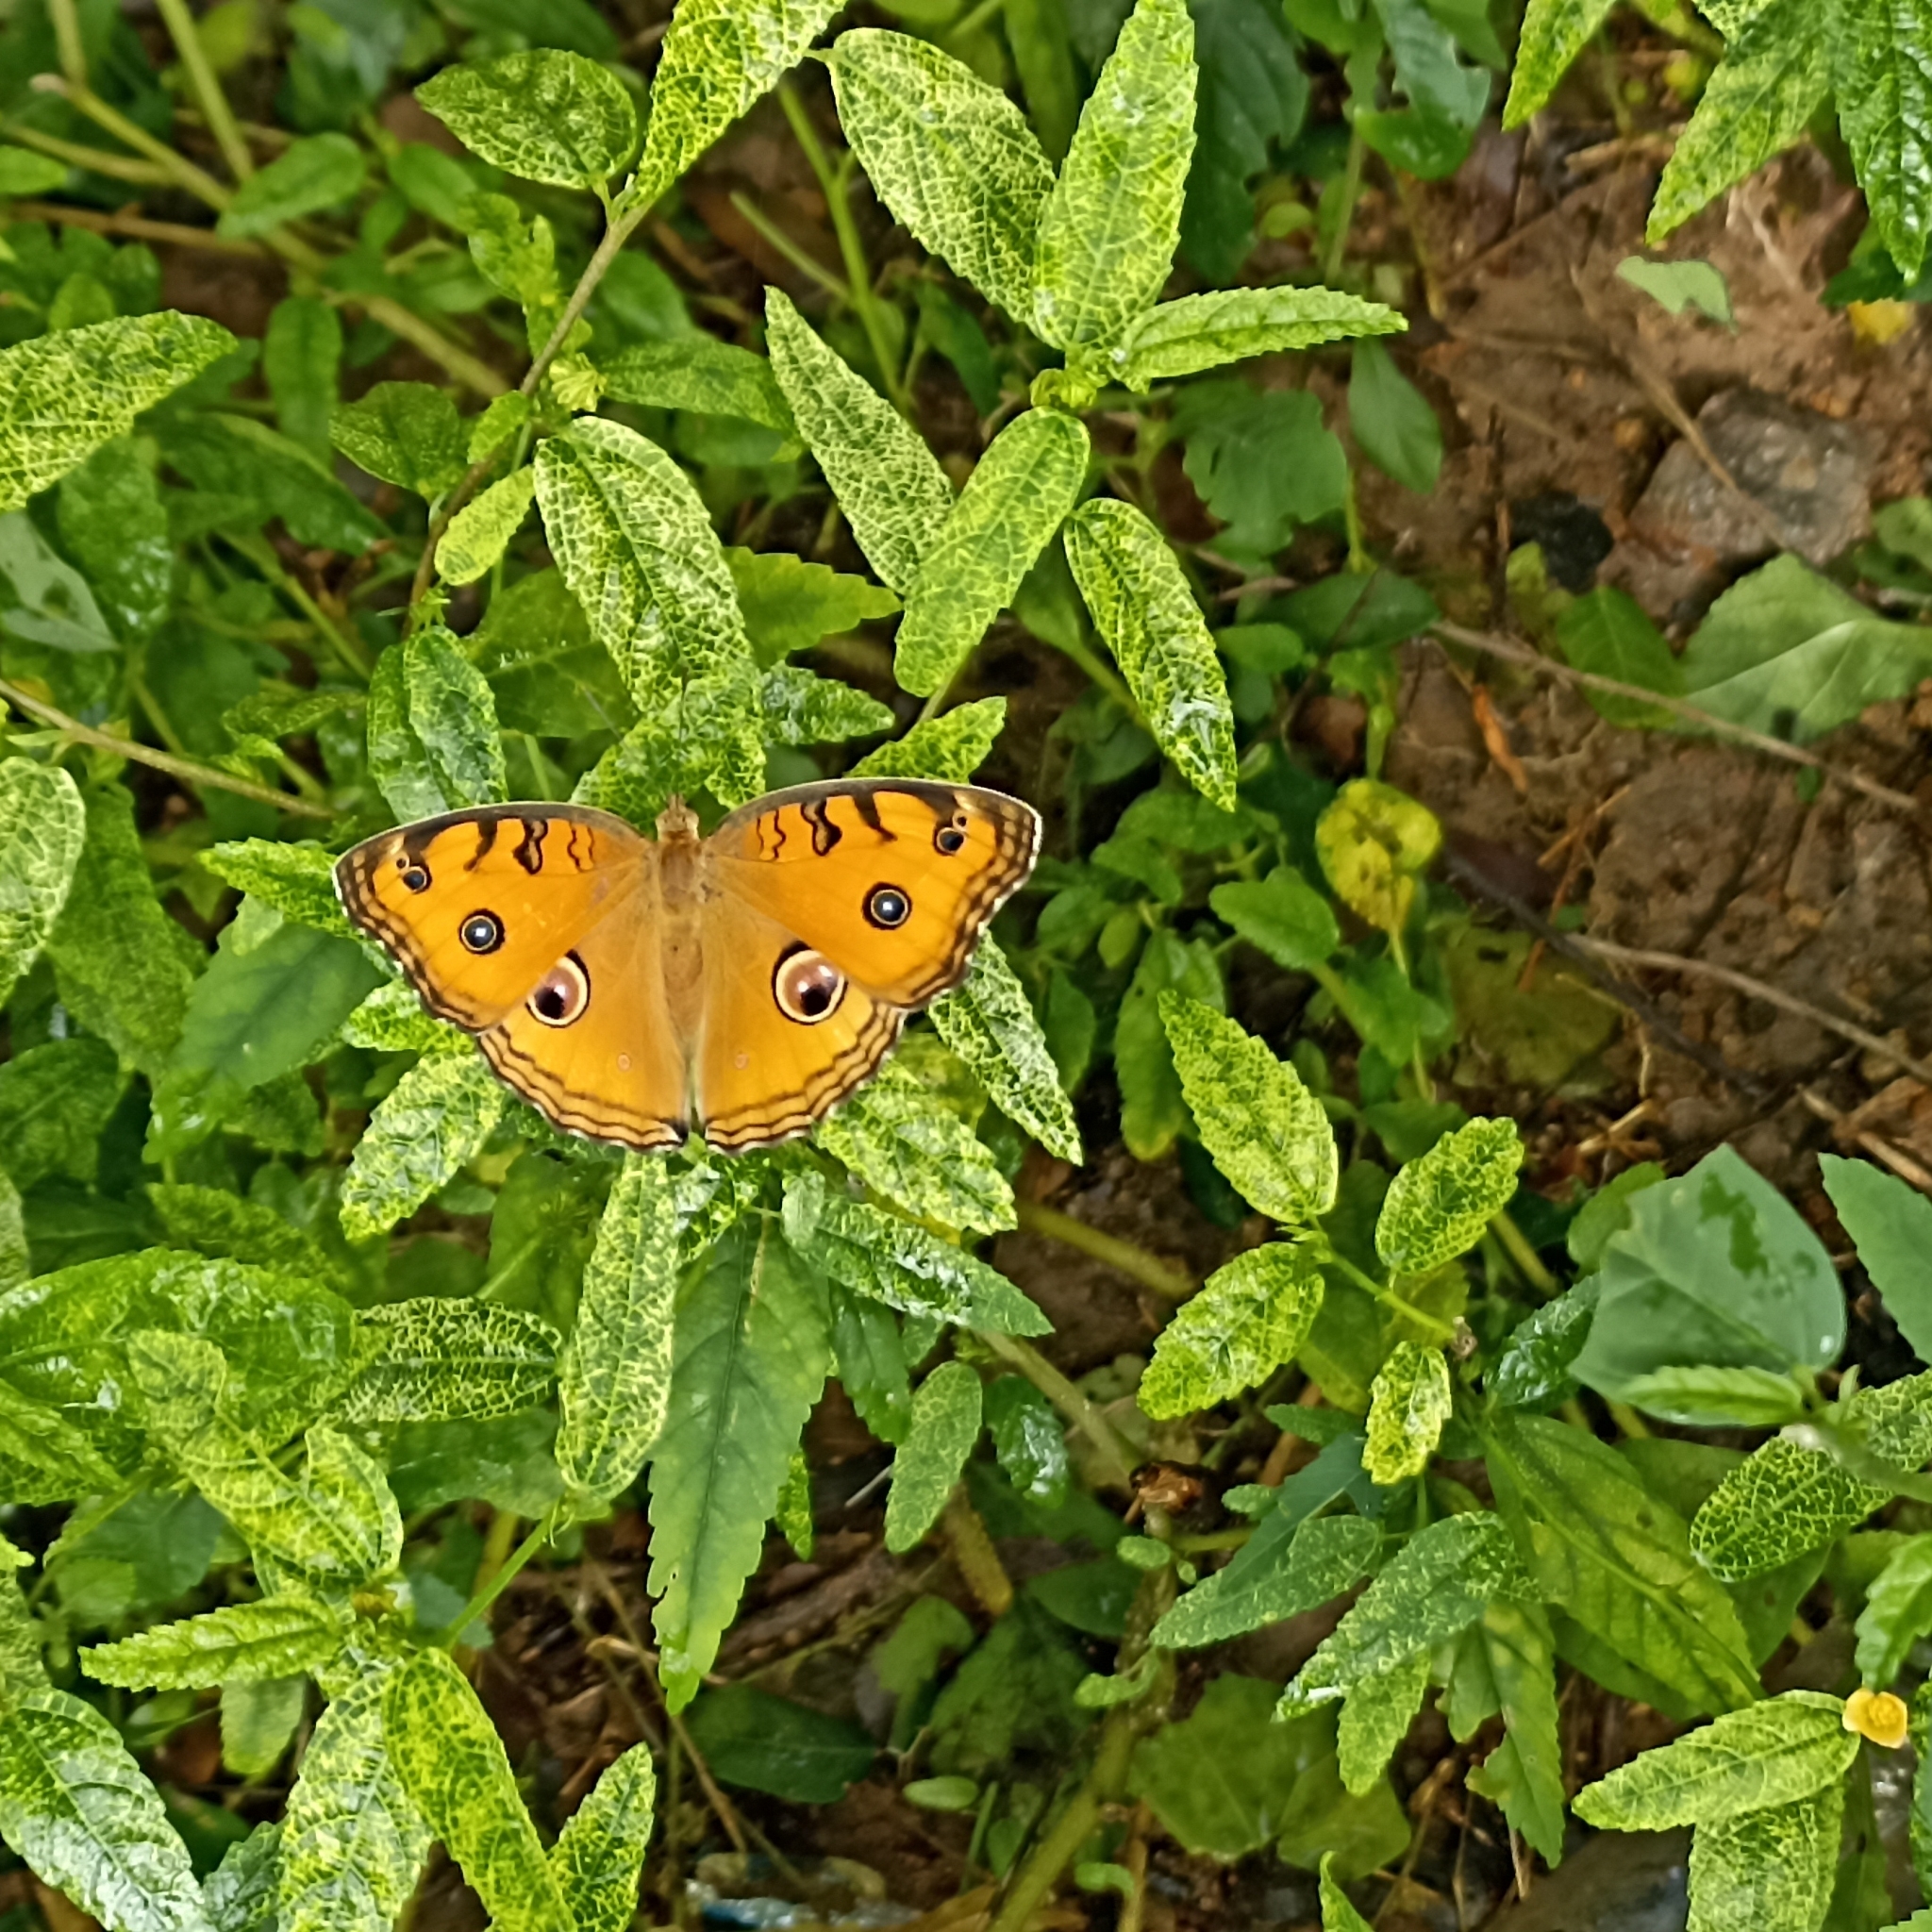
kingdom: Animalia
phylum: Arthropoda
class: Insecta
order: Lepidoptera
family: Nymphalidae
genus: Junonia
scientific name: Junonia almana
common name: Peacock pansy
